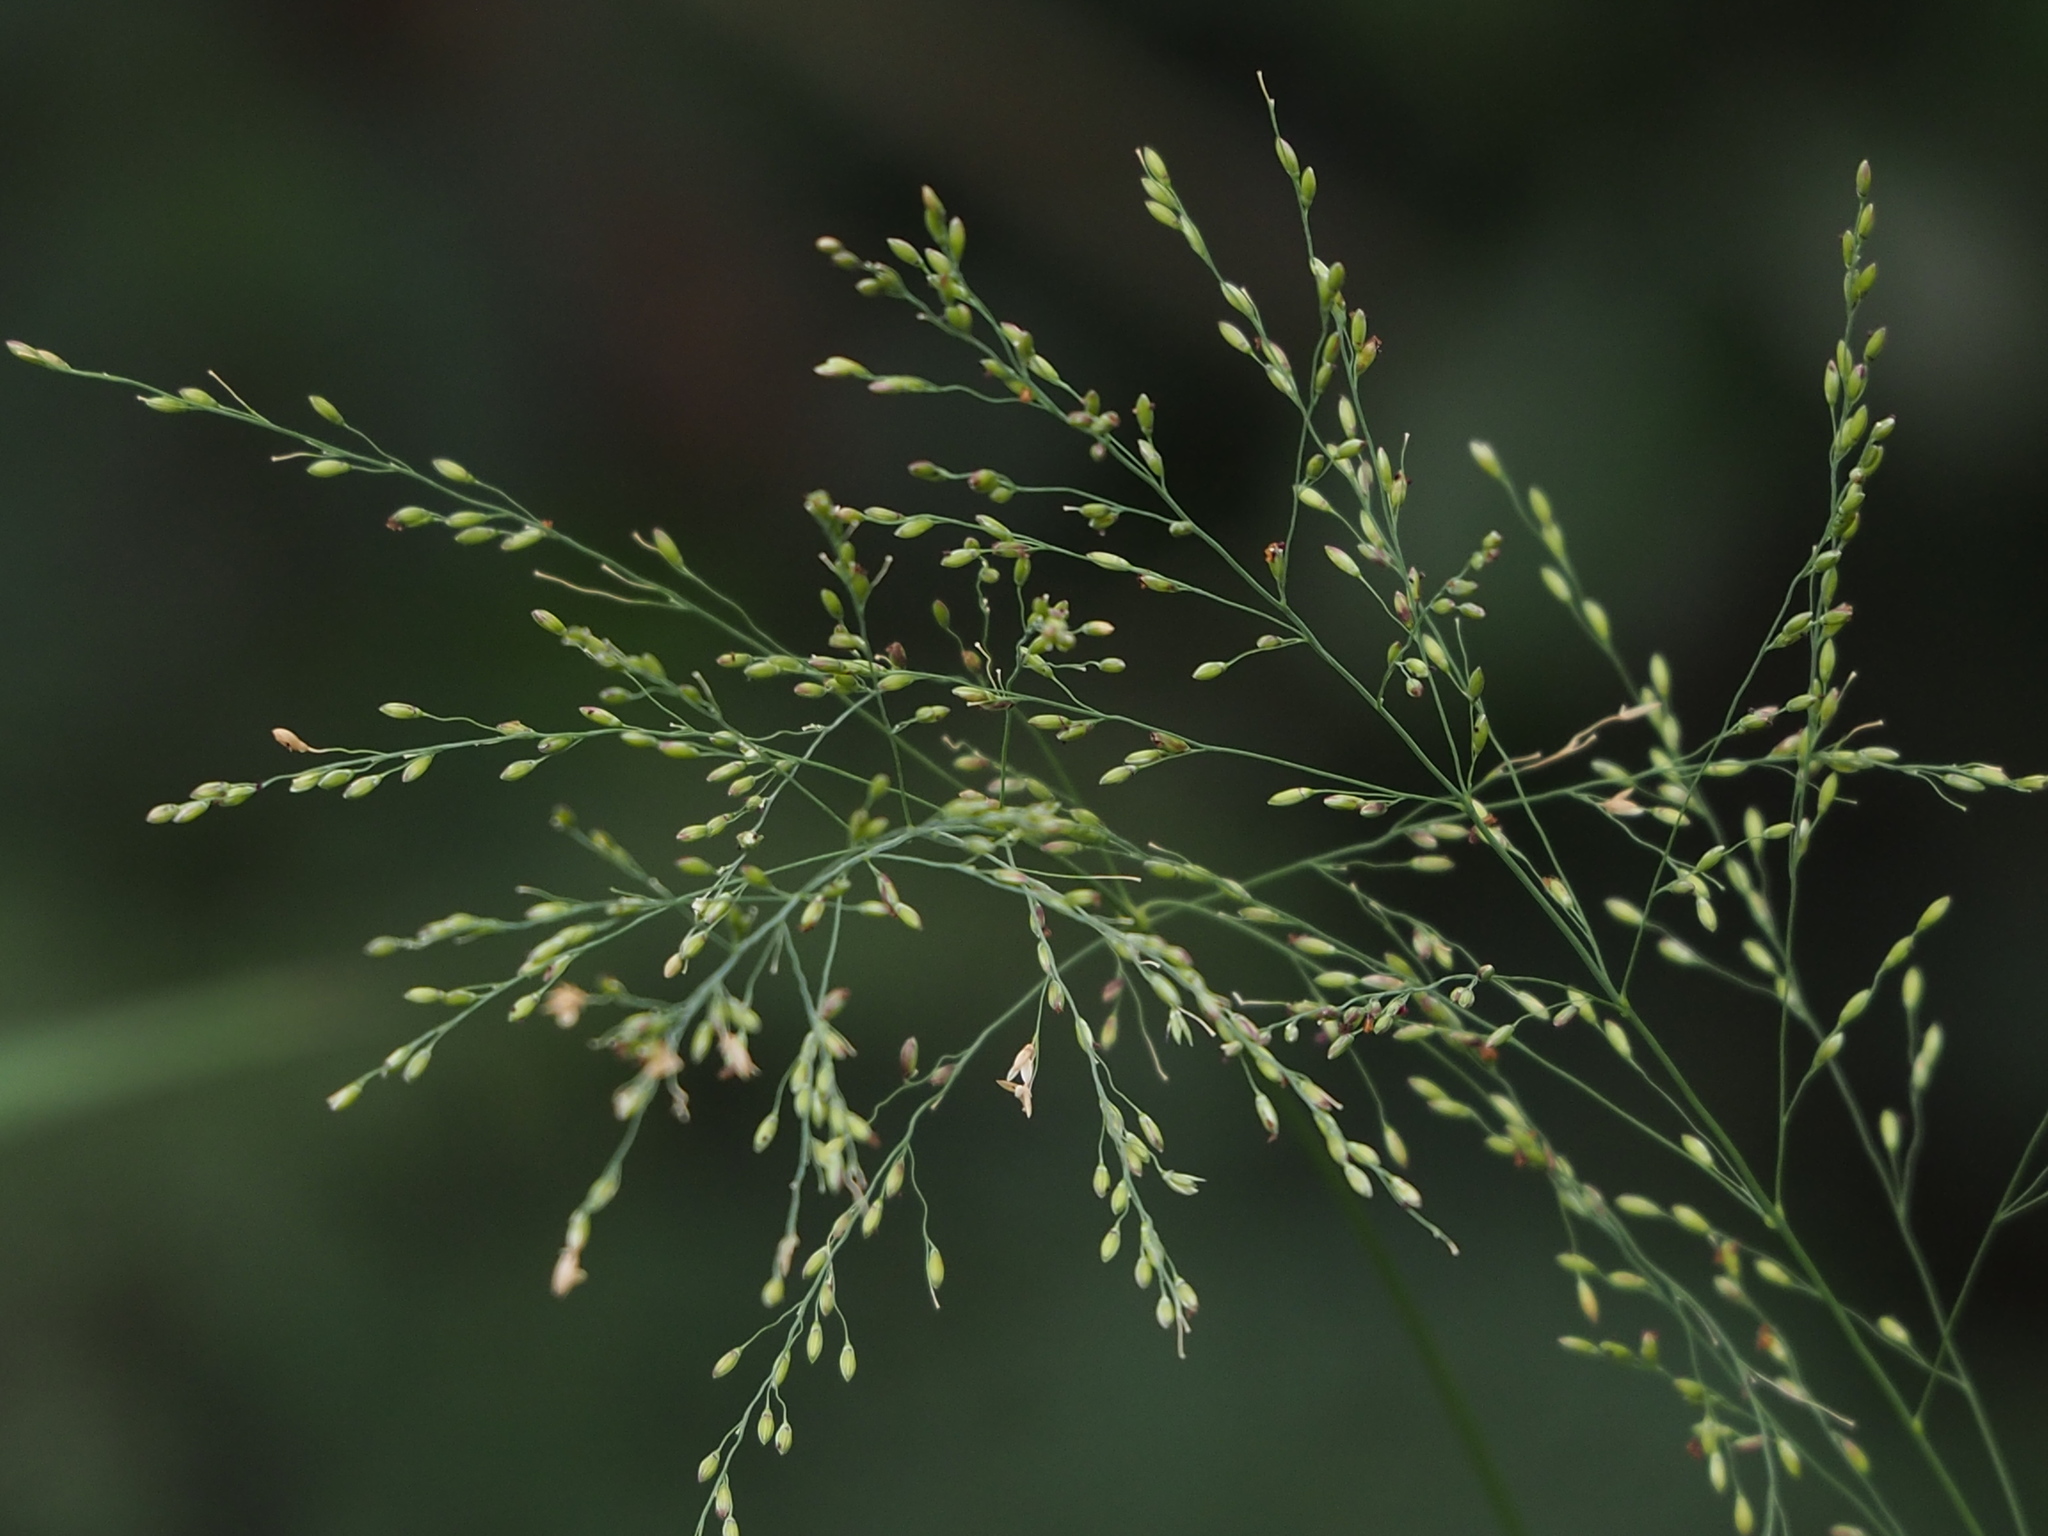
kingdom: Plantae
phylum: Tracheophyta
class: Liliopsida
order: Poales
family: Poaceae
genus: Megathyrsus
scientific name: Megathyrsus maximus
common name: Guineagrass
